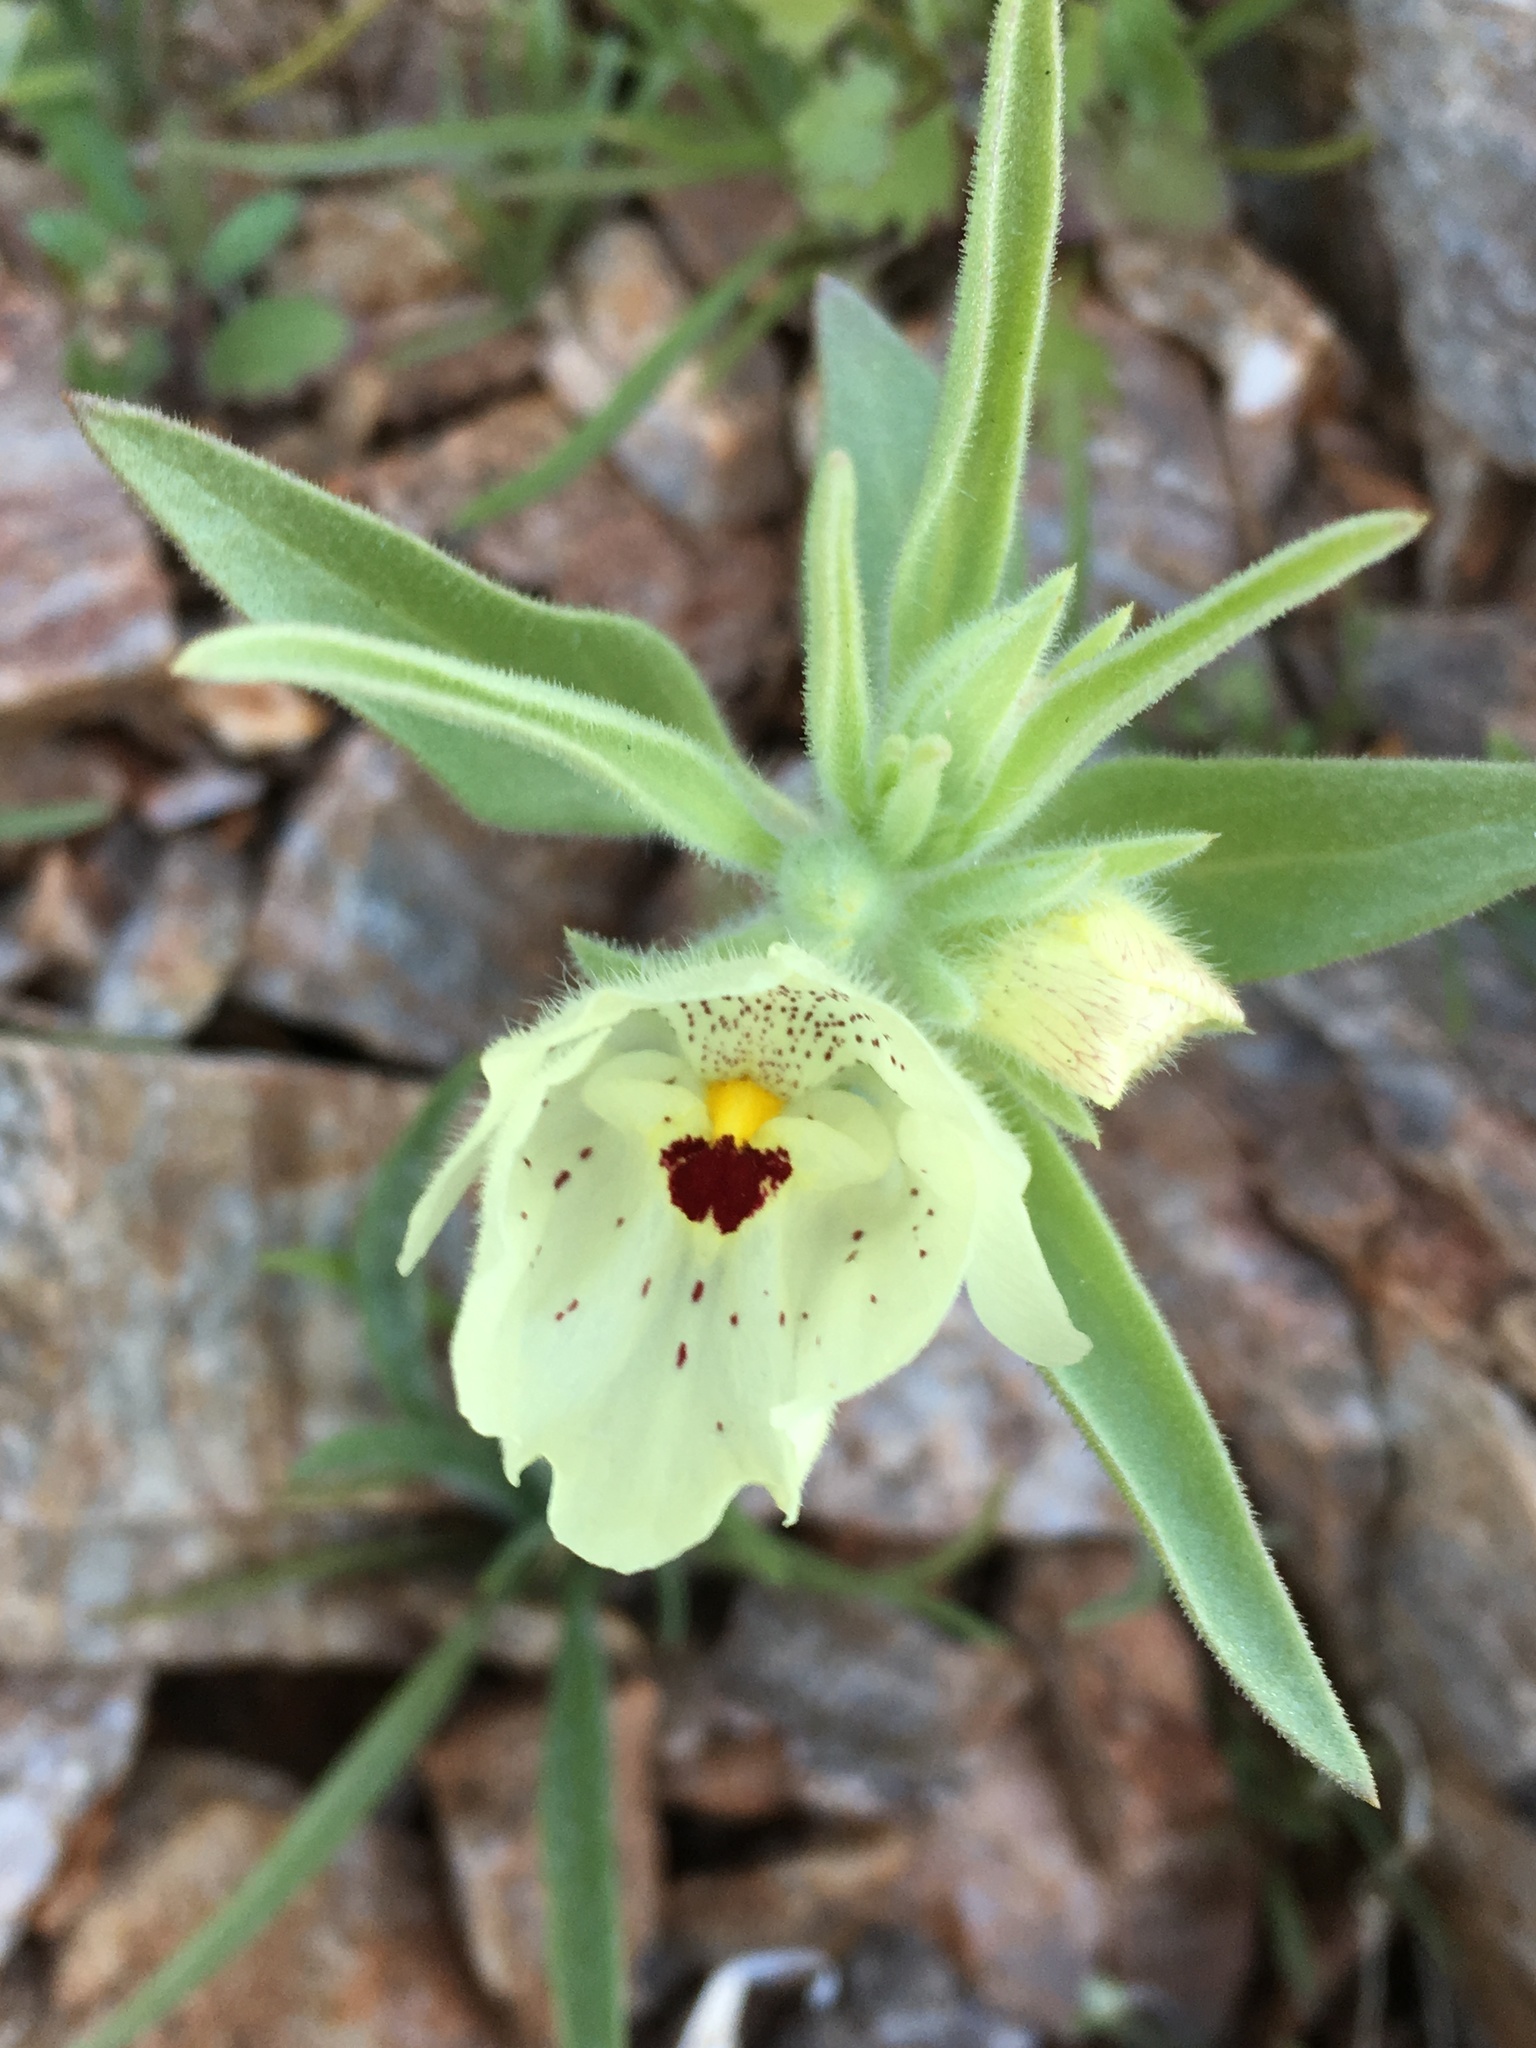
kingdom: Plantae
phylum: Tracheophyta
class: Magnoliopsida
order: Lamiales
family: Plantaginaceae
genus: Mohavea
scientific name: Mohavea confertiflora
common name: Ghost flower
